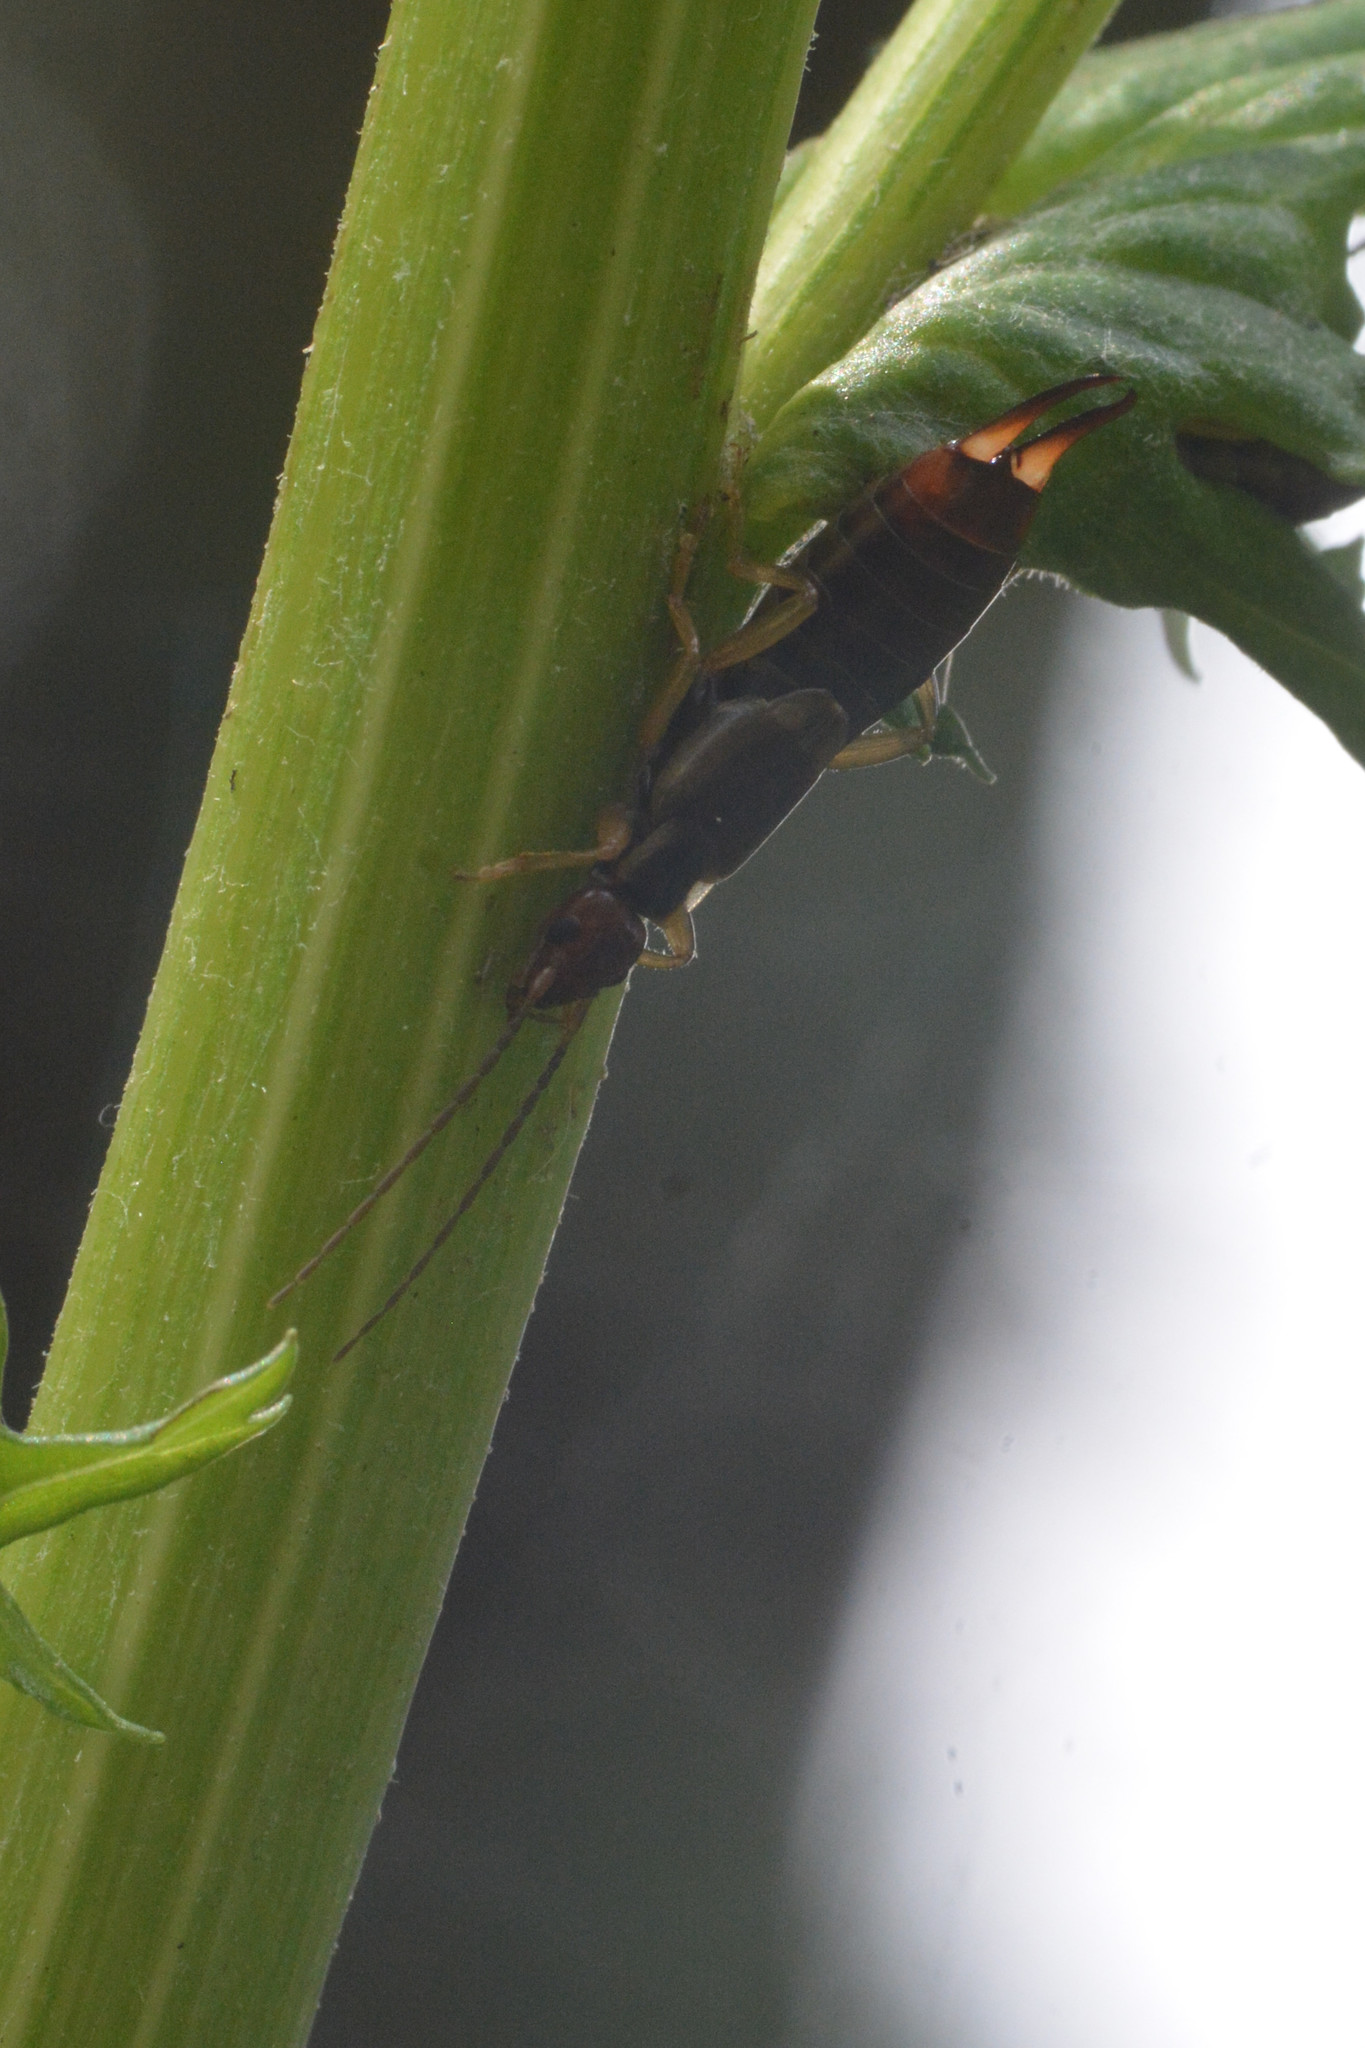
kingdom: Animalia
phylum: Arthropoda
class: Insecta
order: Dermaptera
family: Forficulidae
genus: Forficula
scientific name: Forficula
